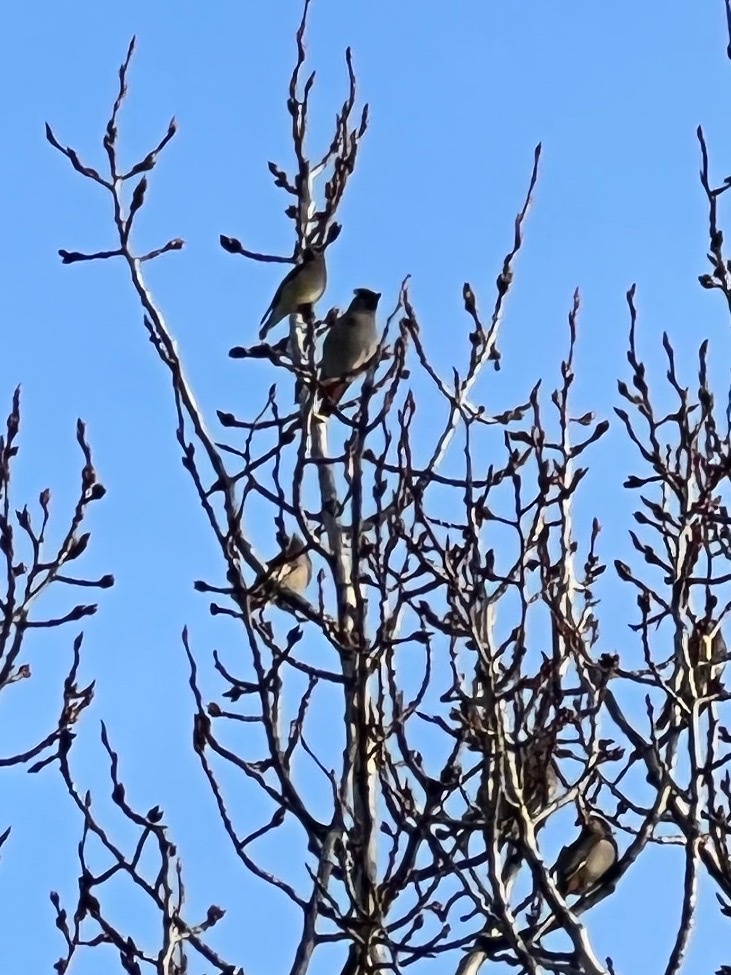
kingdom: Animalia
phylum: Chordata
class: Aves
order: Passeriformes
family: Bombycillidae
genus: Bombycilla
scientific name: Bombycilla cedrorum
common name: Cedar waxwing
